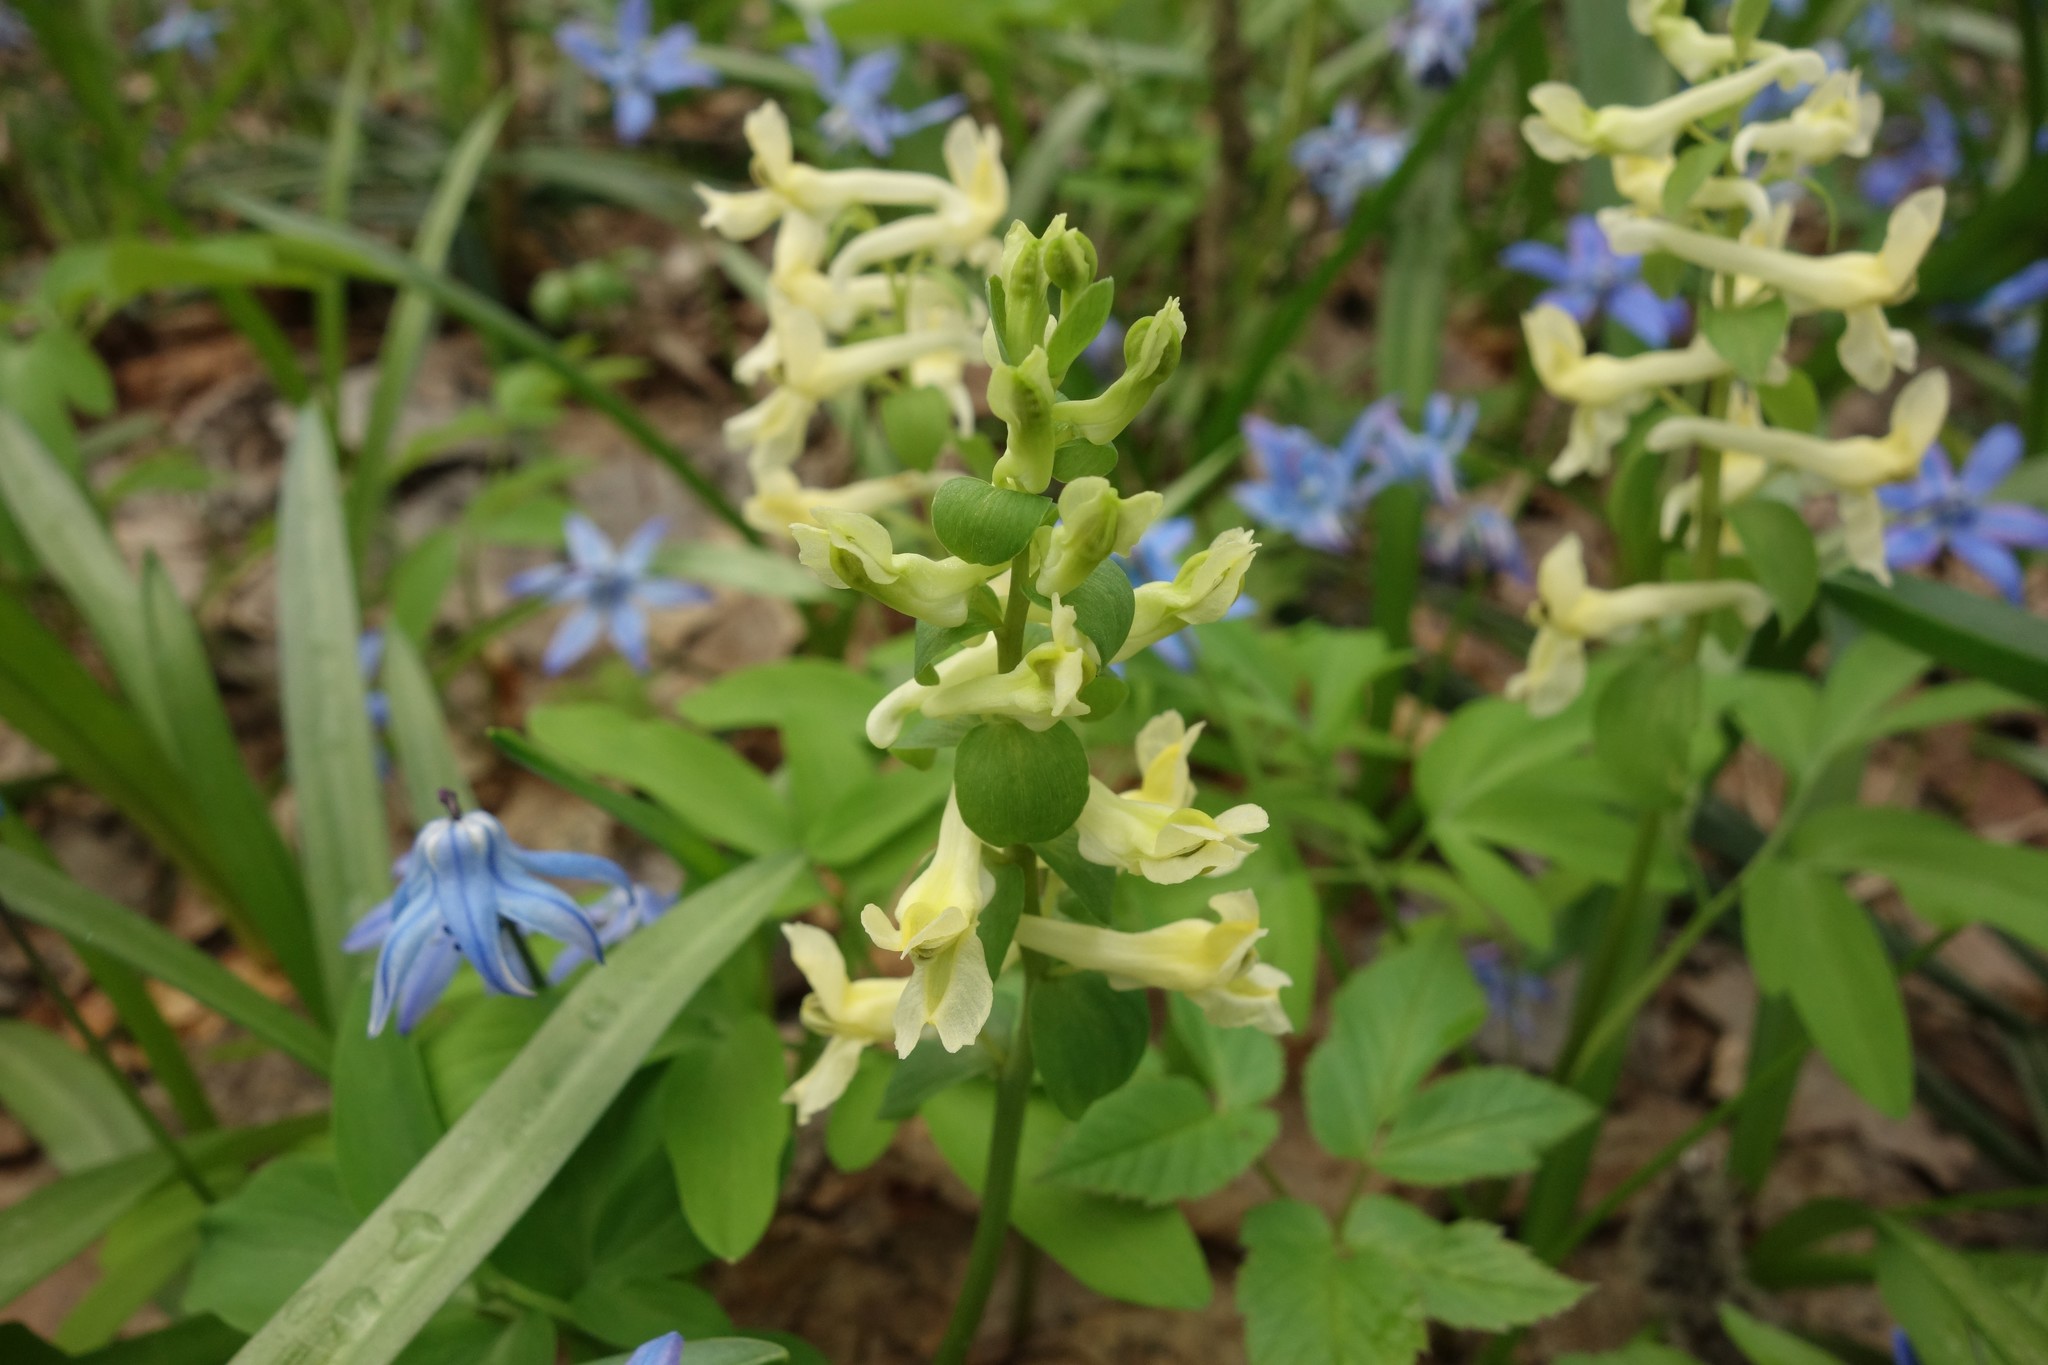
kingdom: Plantae
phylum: Tracheophyta
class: Magnoliopsida
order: Ranunculales
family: Papaveraceae
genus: Corydalis
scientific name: Corydalis cava
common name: Hollowroot
